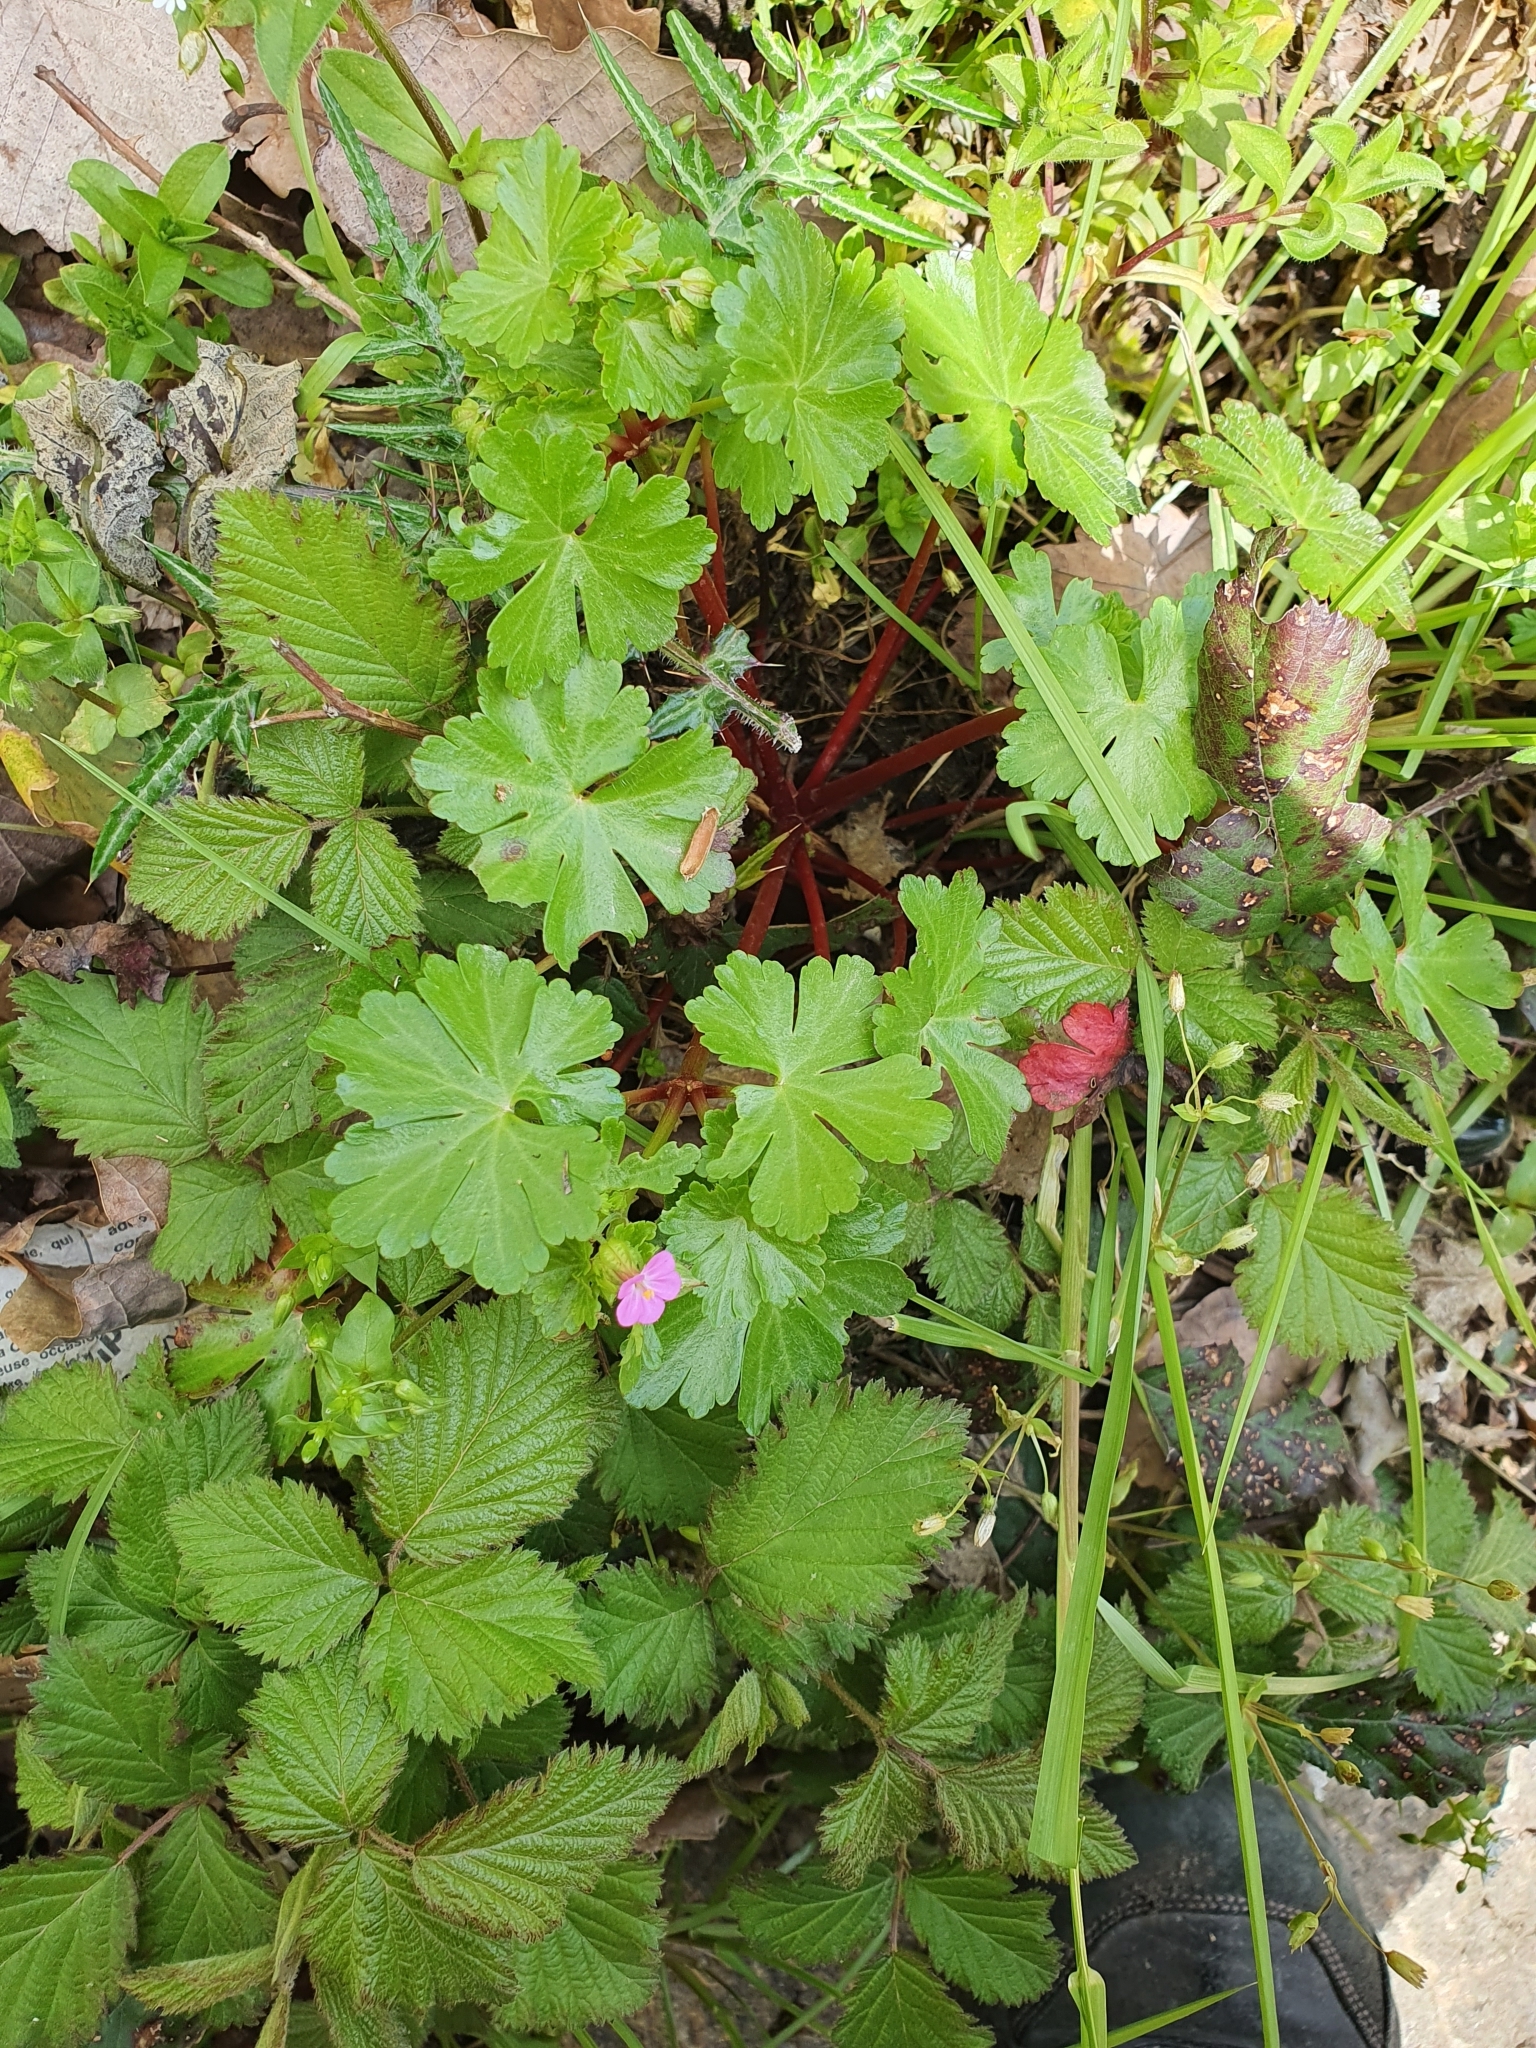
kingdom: Plantae
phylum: Tracheophyta
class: Magnoliopsida
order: Geraniales
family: Geraniaceae
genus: Geranium
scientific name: Geranium lucidum
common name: Shining crane's-bill
